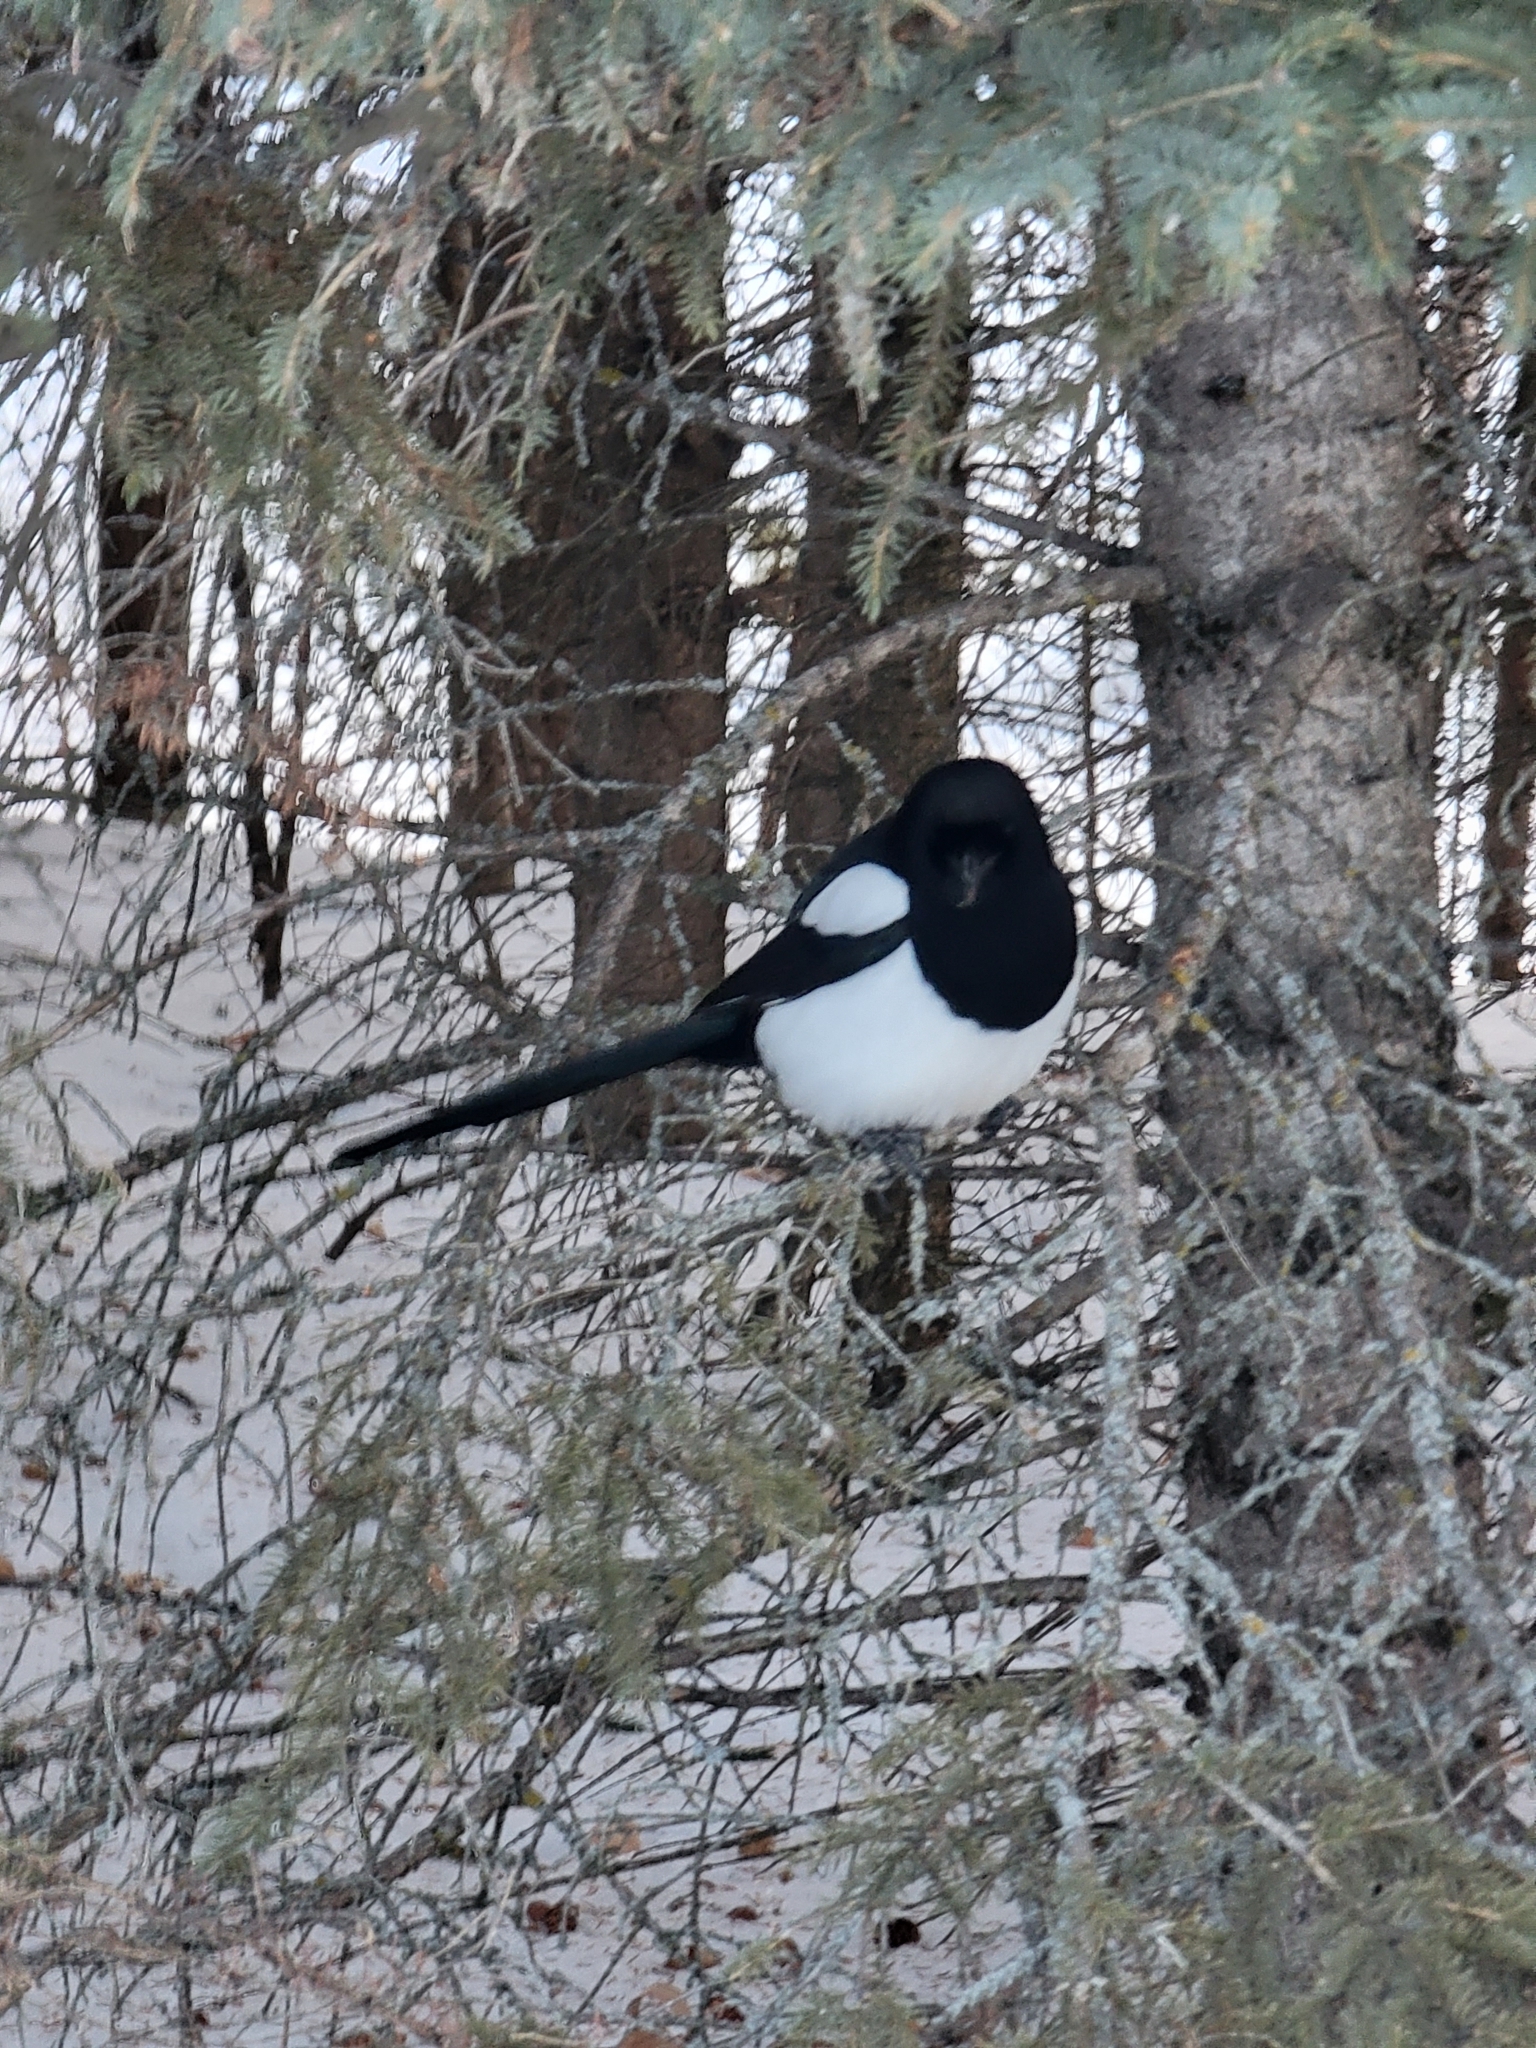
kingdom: Animalia
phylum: Chordata
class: Aves
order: Passeriformes
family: Corvidae
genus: Pica
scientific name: Pica hudsonia
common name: Black-billed magpie
